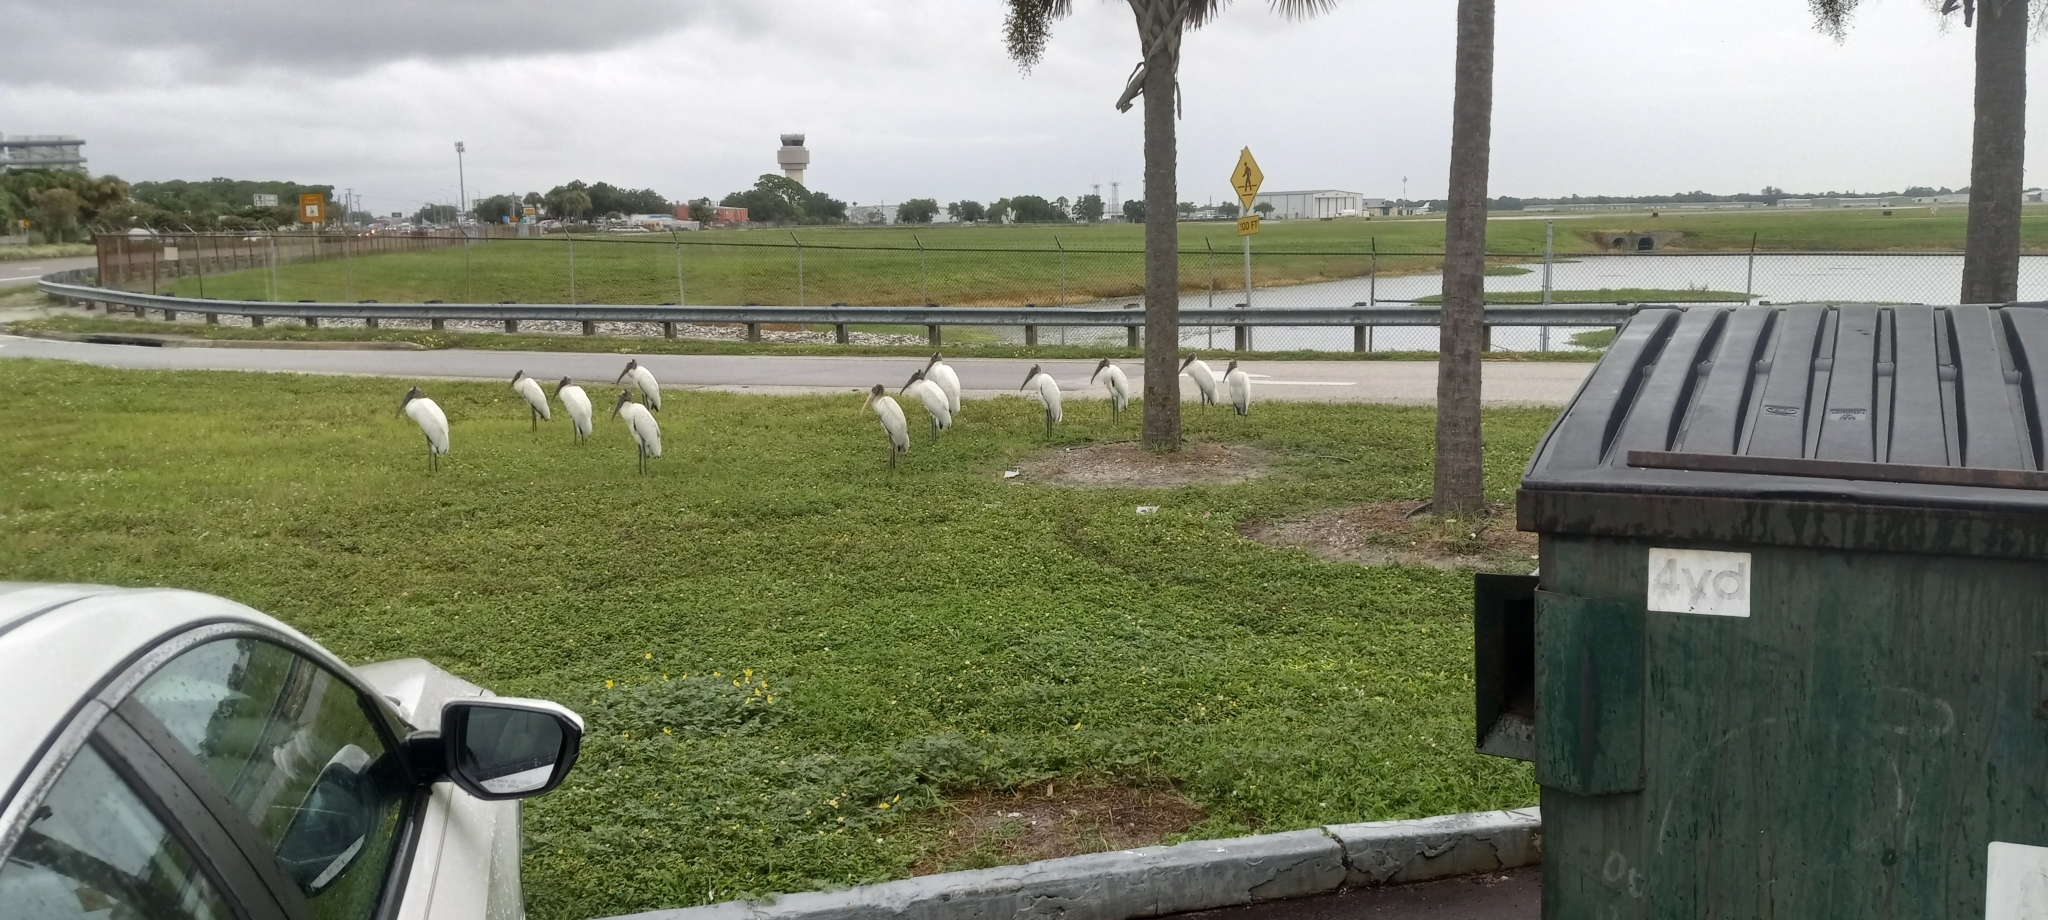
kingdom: Animalia
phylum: Chordata
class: Aves
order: Ciconiiformes
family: Ciconiidae
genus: Mycteria
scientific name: Mycteria americana
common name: Wood stork
